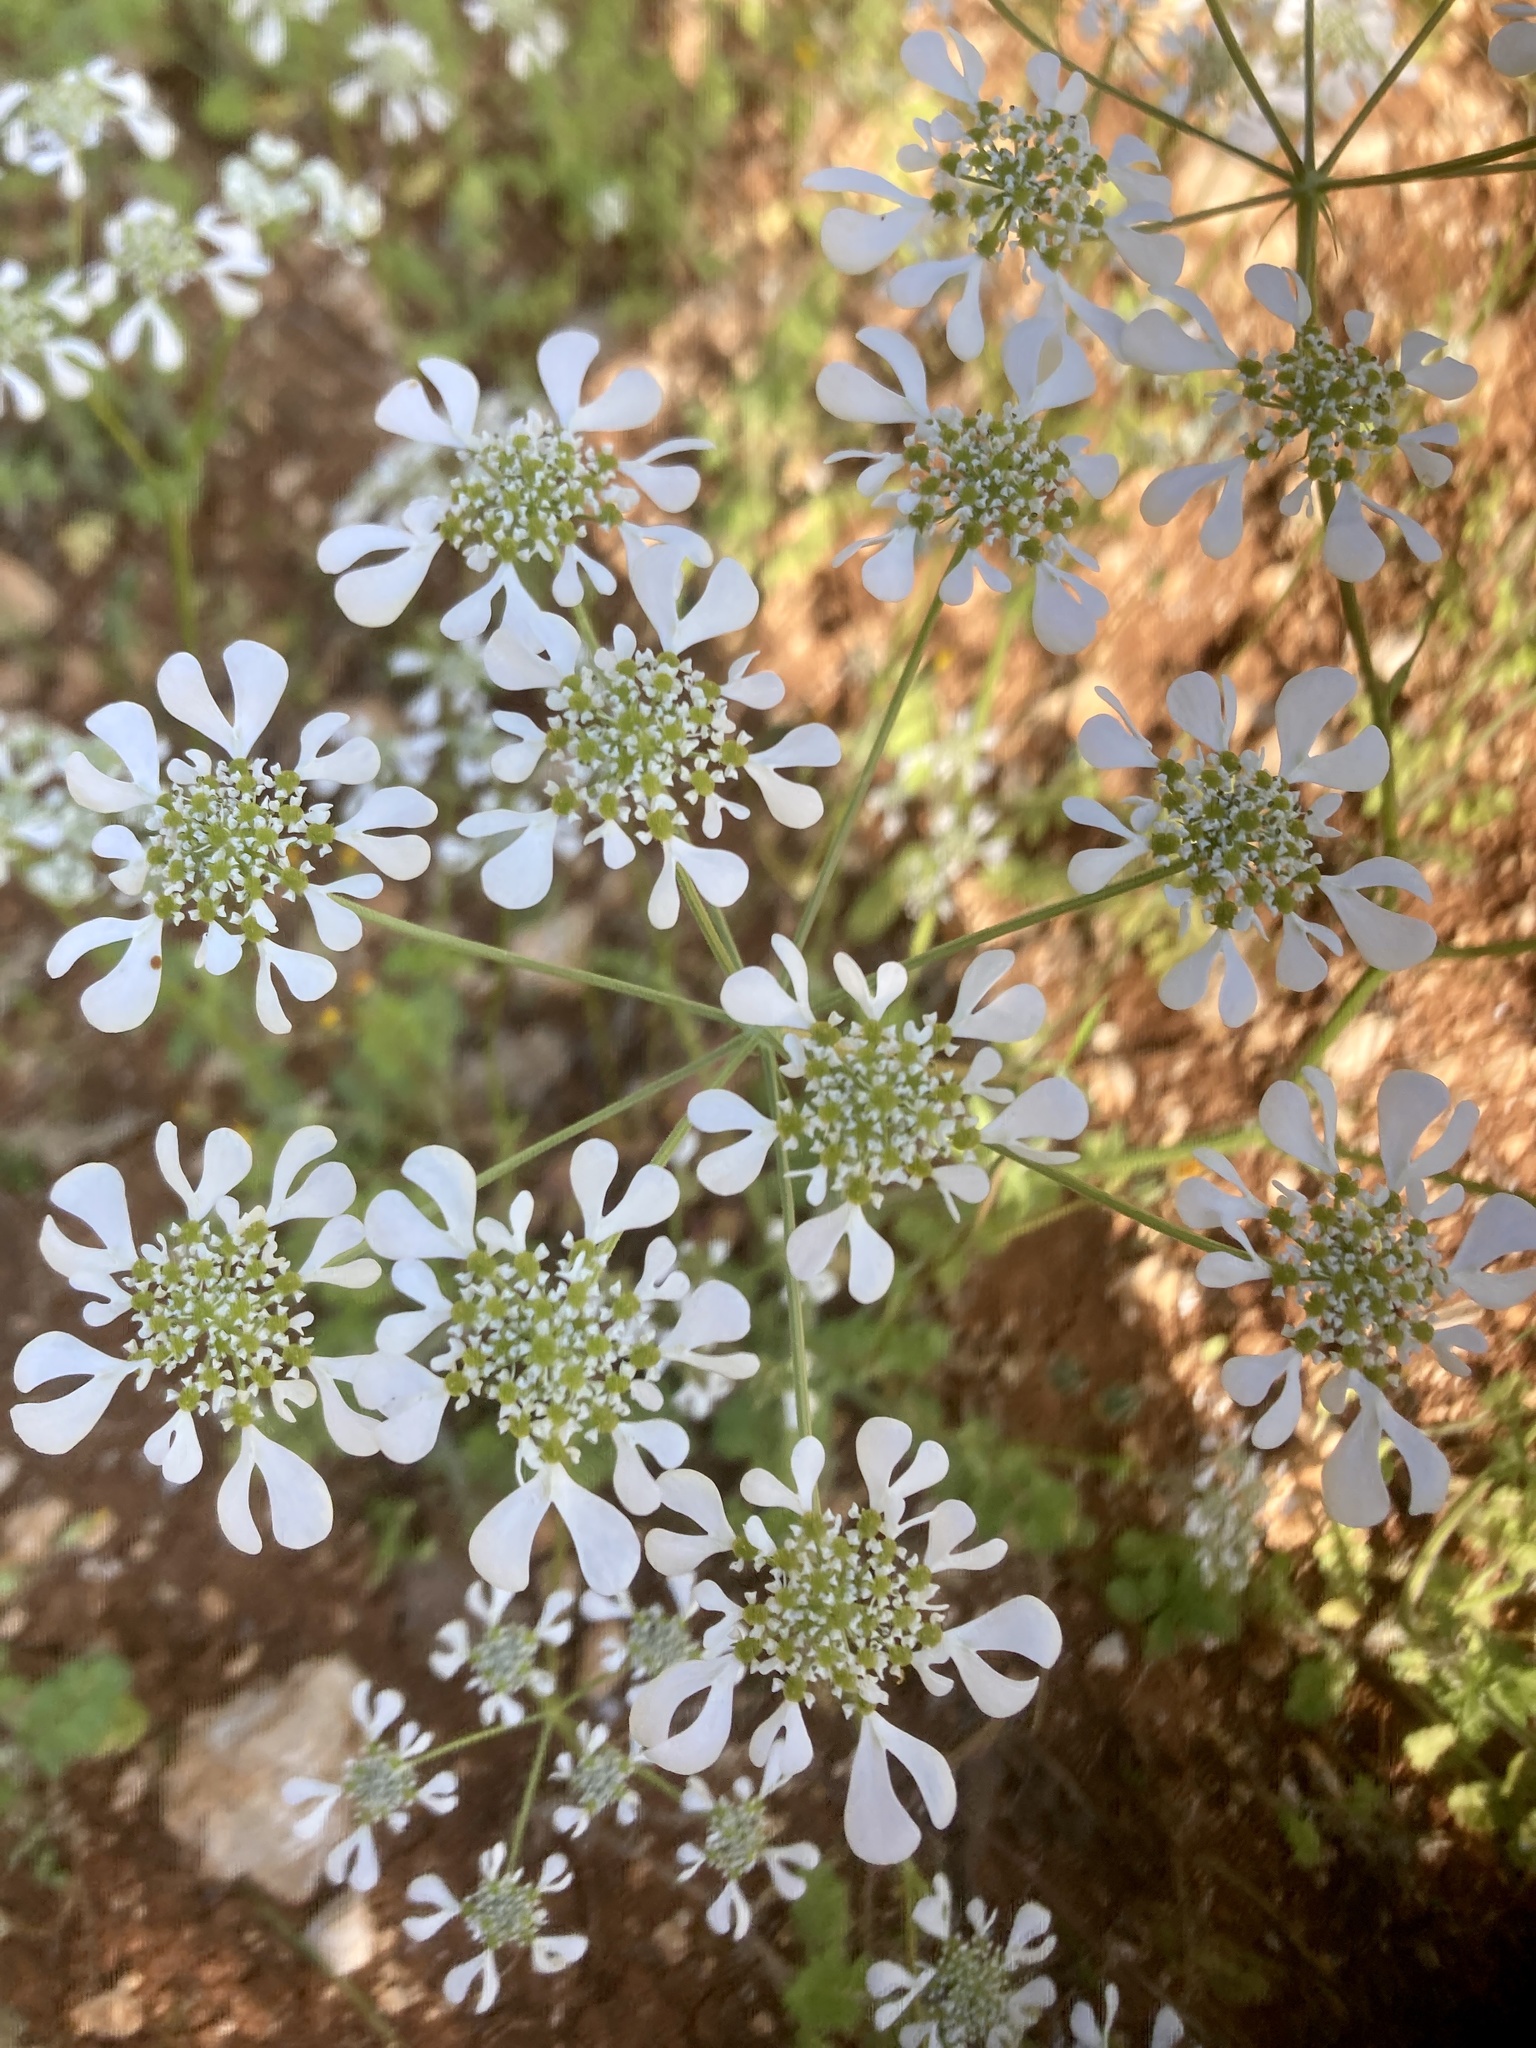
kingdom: Plantae
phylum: Tracheophyta
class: Magnoliopsida
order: Apiales
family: Apiaceae
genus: Tordylium
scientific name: Tordylium apulum
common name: Mediterranean hartwort
